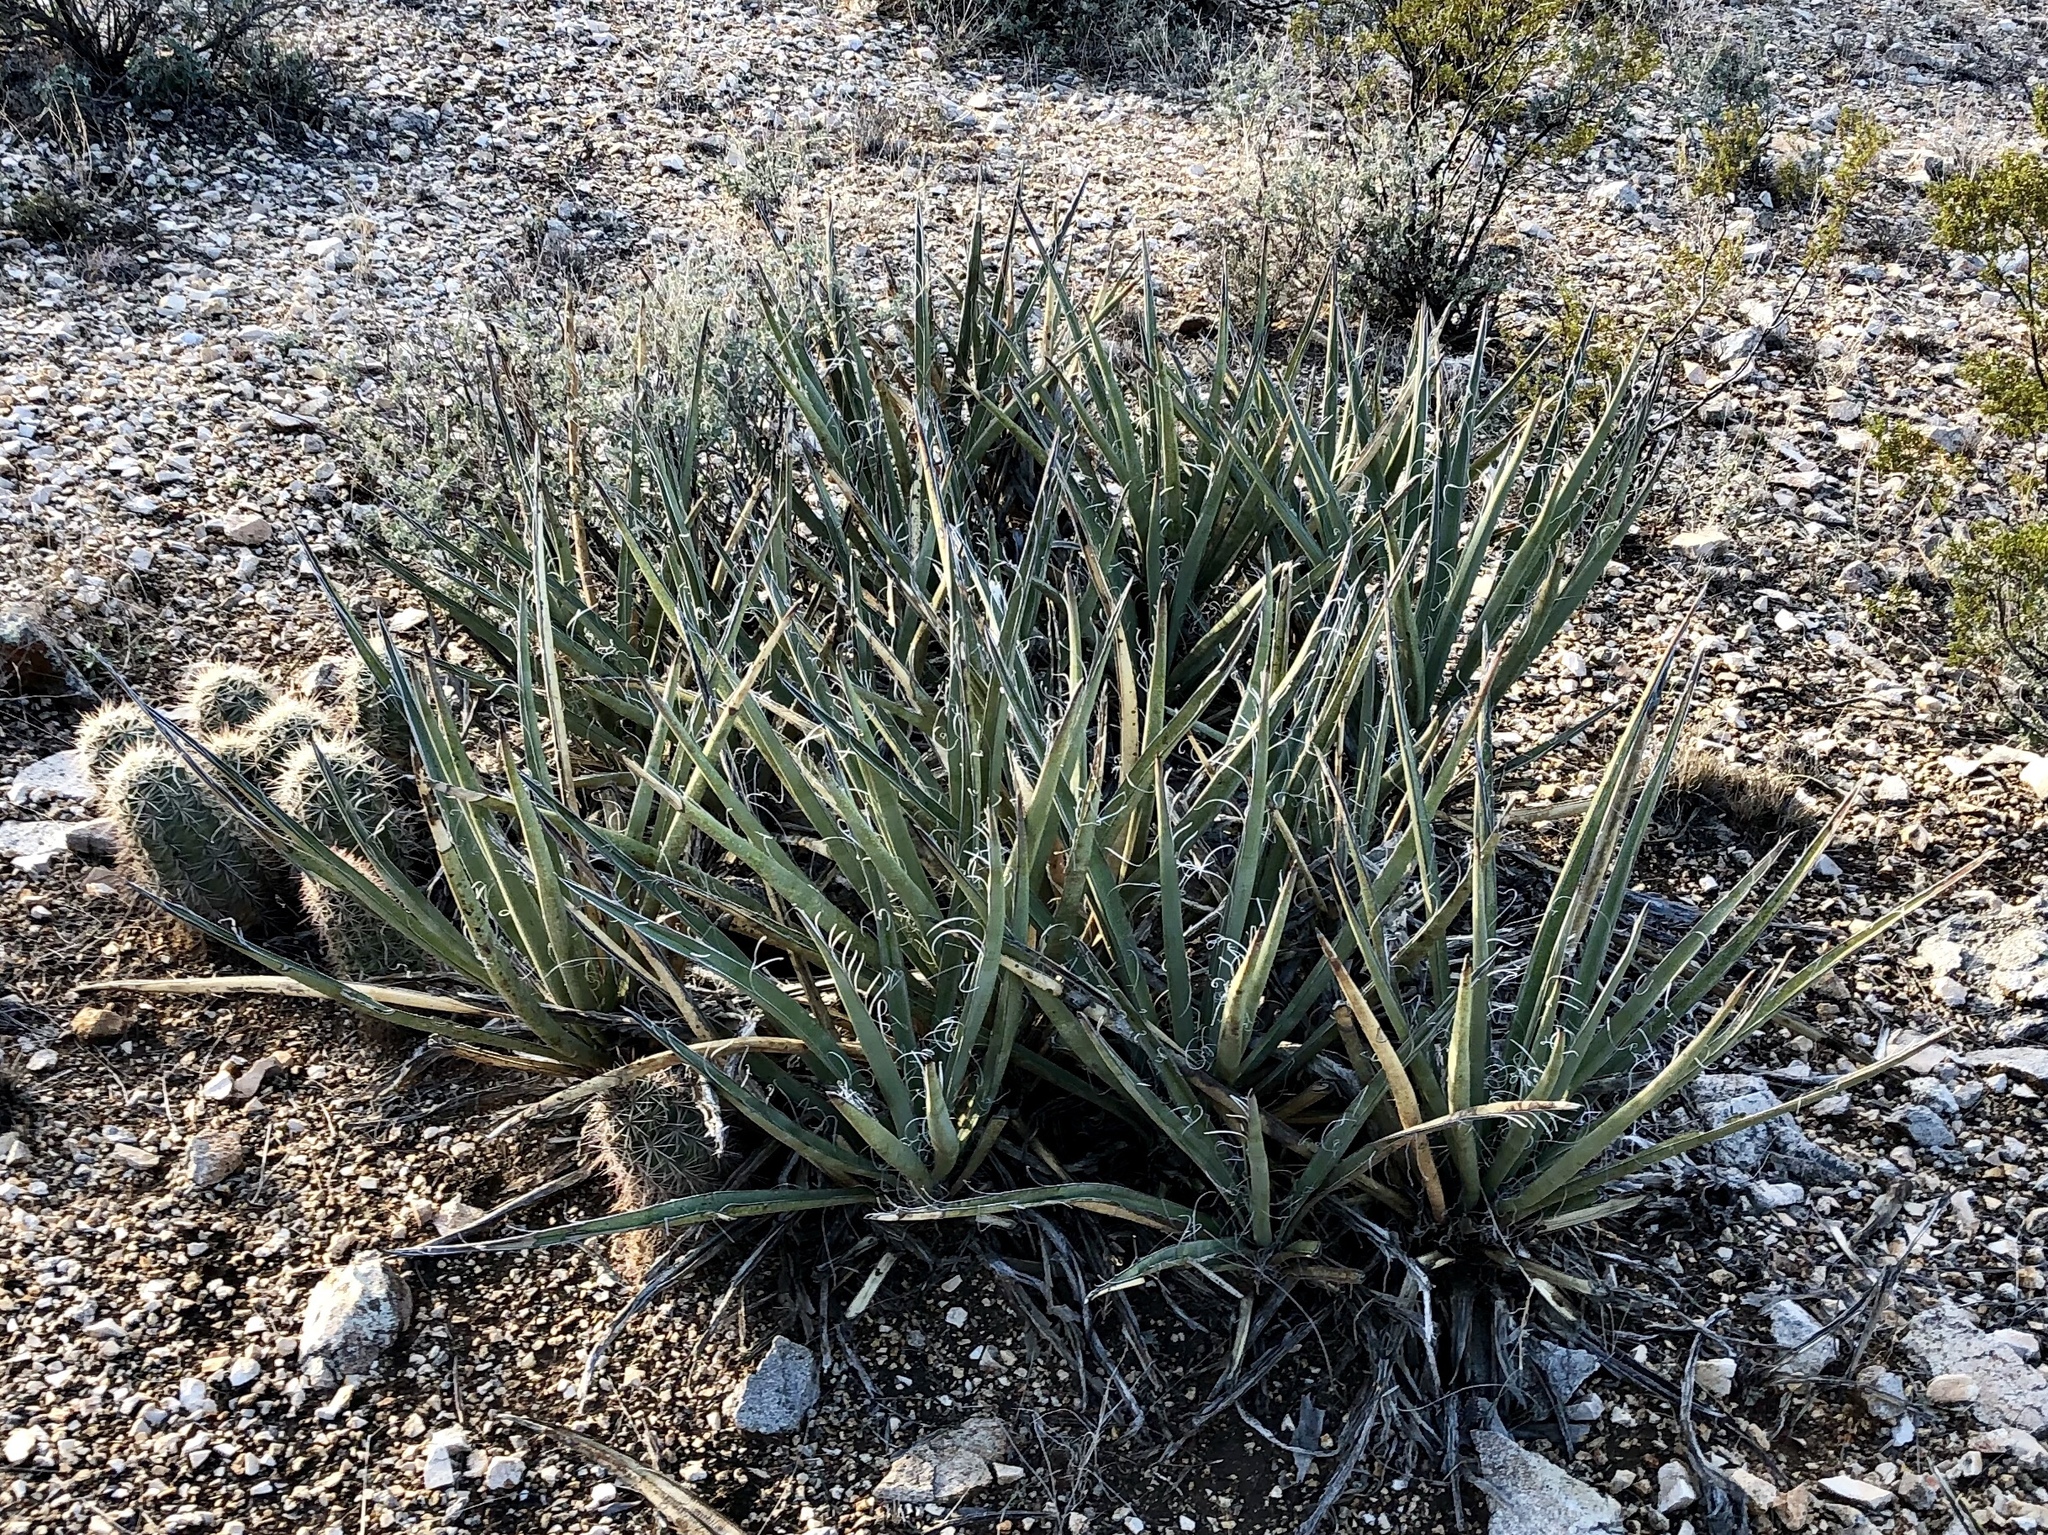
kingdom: Plantae
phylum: Tracheophyta
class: Liliopsida
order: Asparagales
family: Asparagaceae
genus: Yucca
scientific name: Yucca baccata
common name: Banana yucca
